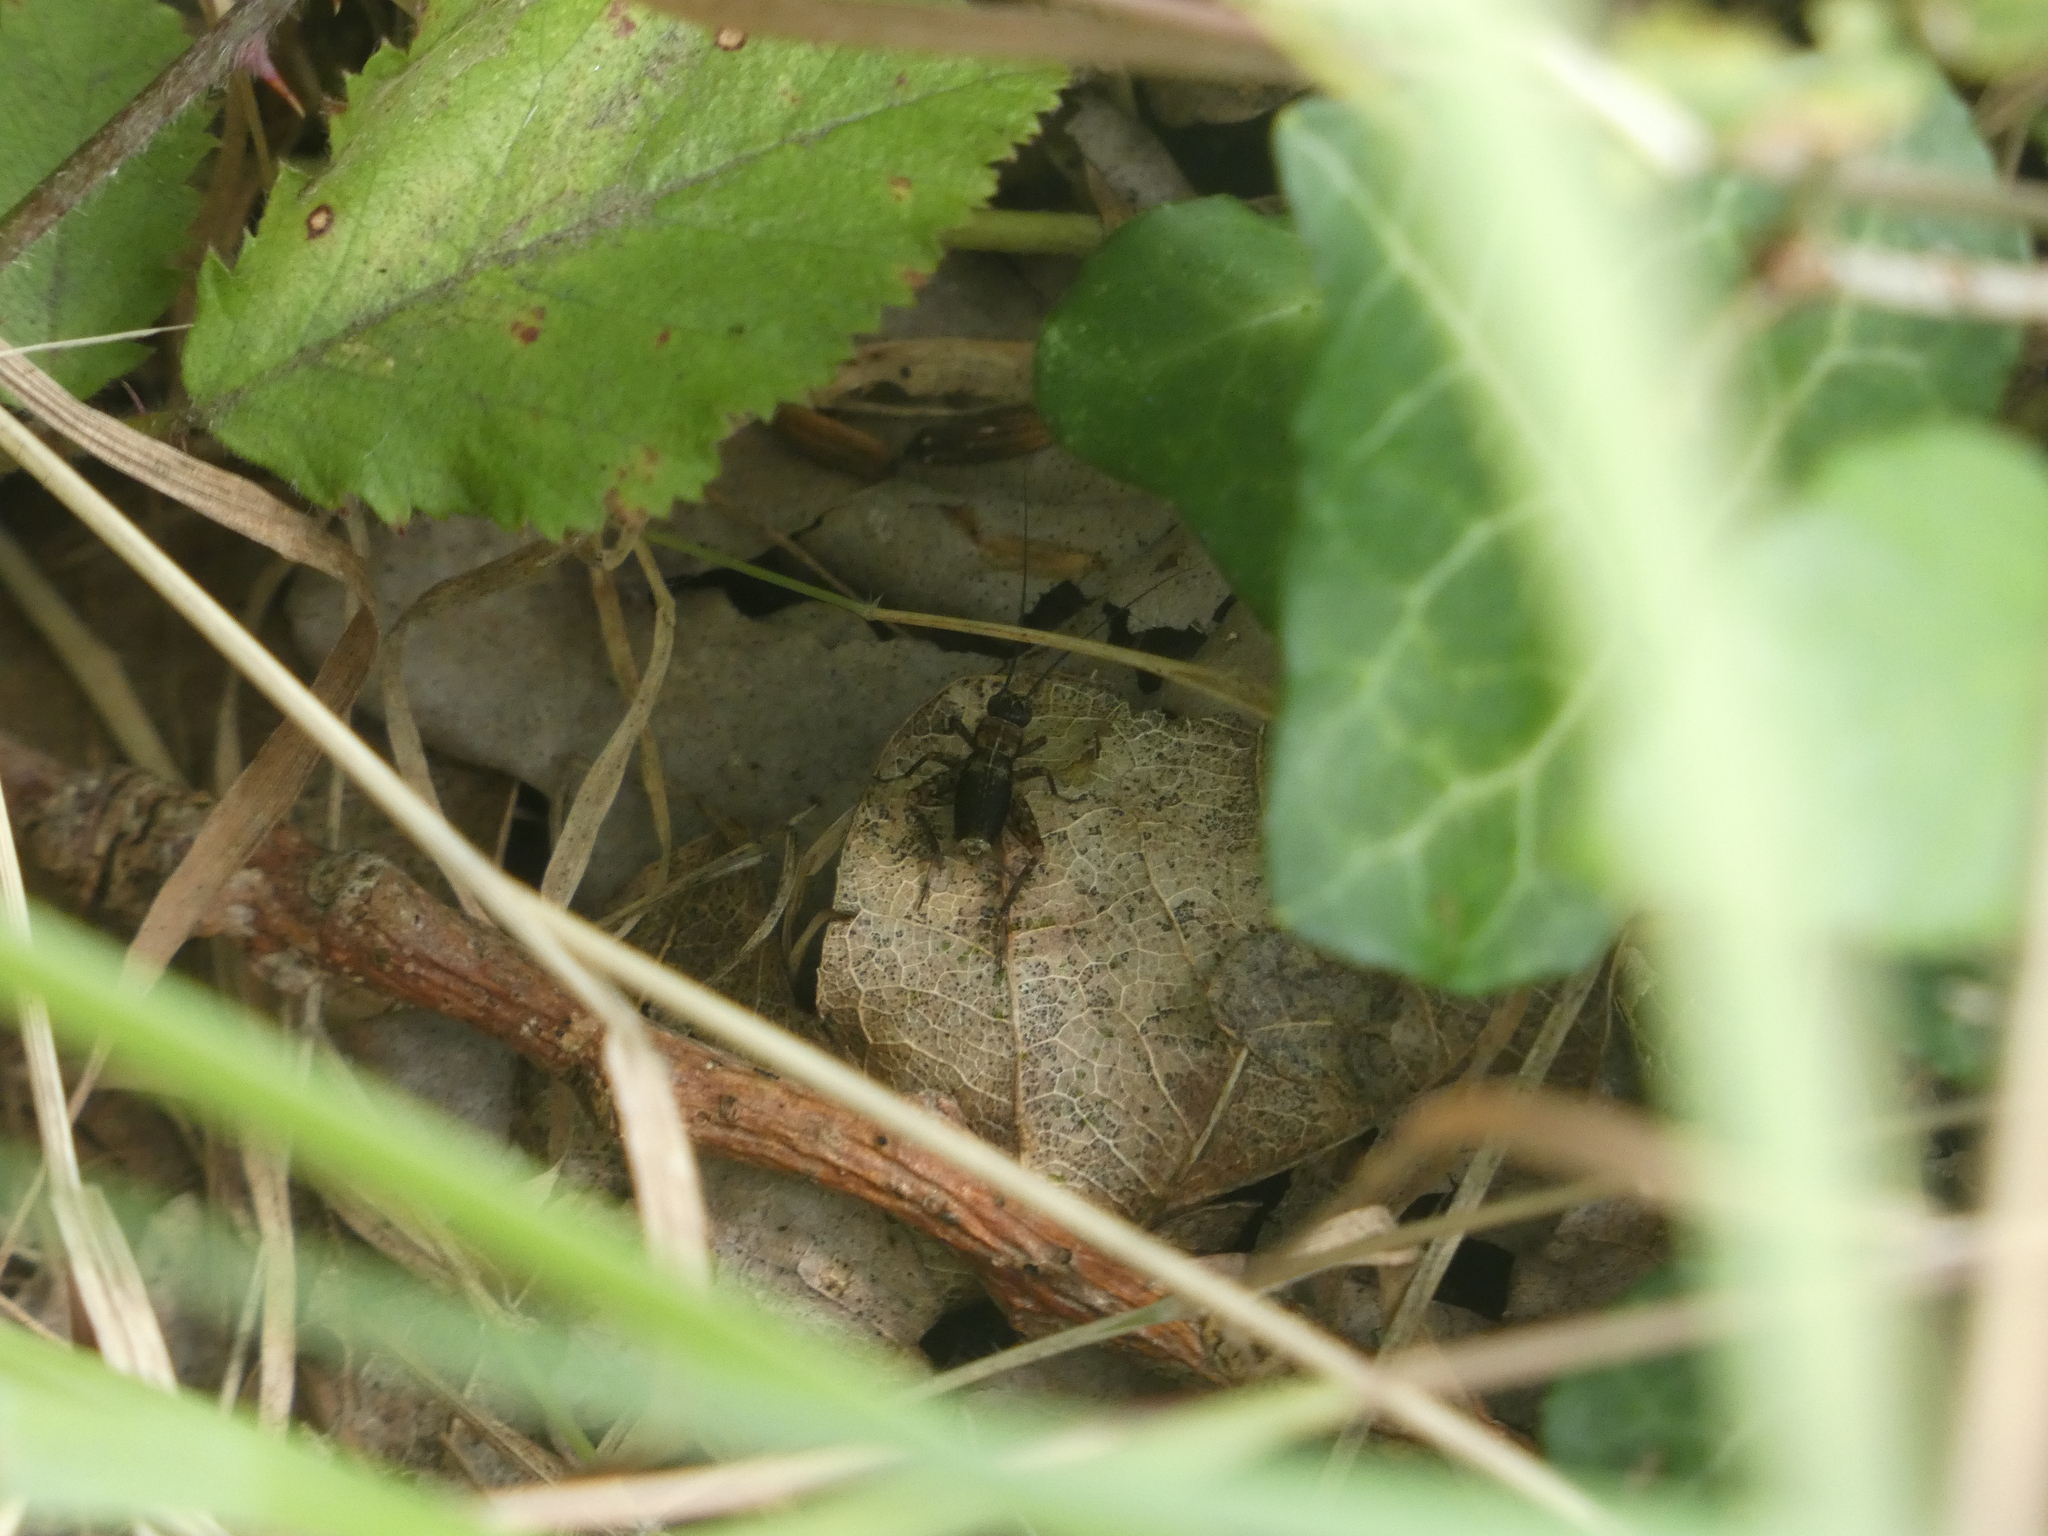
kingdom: Animalia
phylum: Arthropoda
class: Insecta
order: Orthoptera
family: Trigonidiidae
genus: Nemobius
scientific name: Nemobius sylvestris
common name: Wood-cricket
